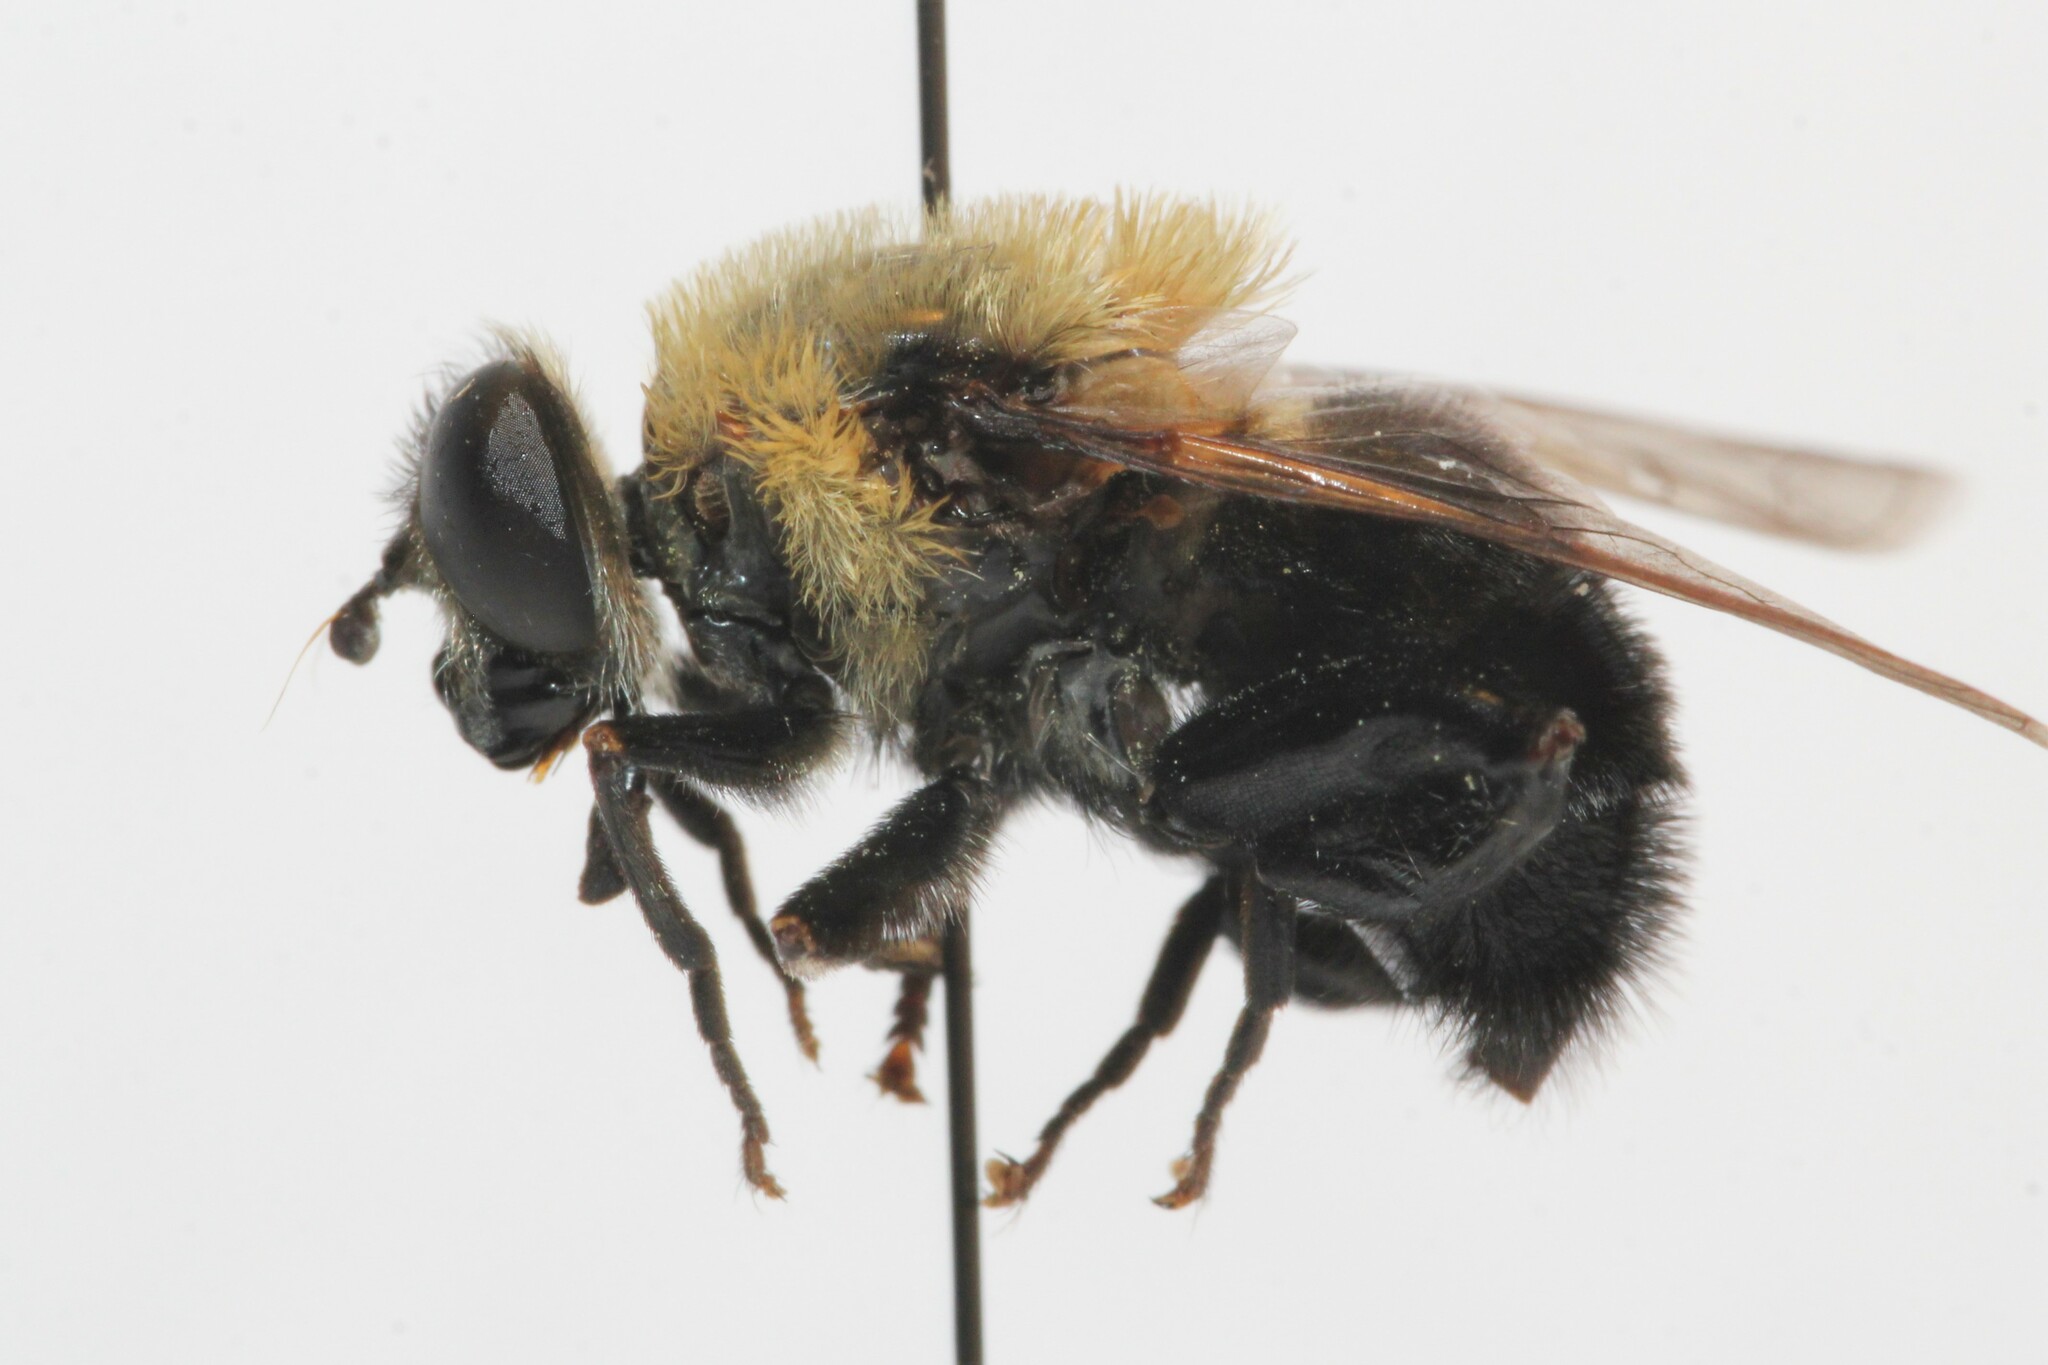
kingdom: Animalia
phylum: Arthropoda
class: Insecta
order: Diptera
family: Syrphidae
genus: Imatisma
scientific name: Imatisma bautias
